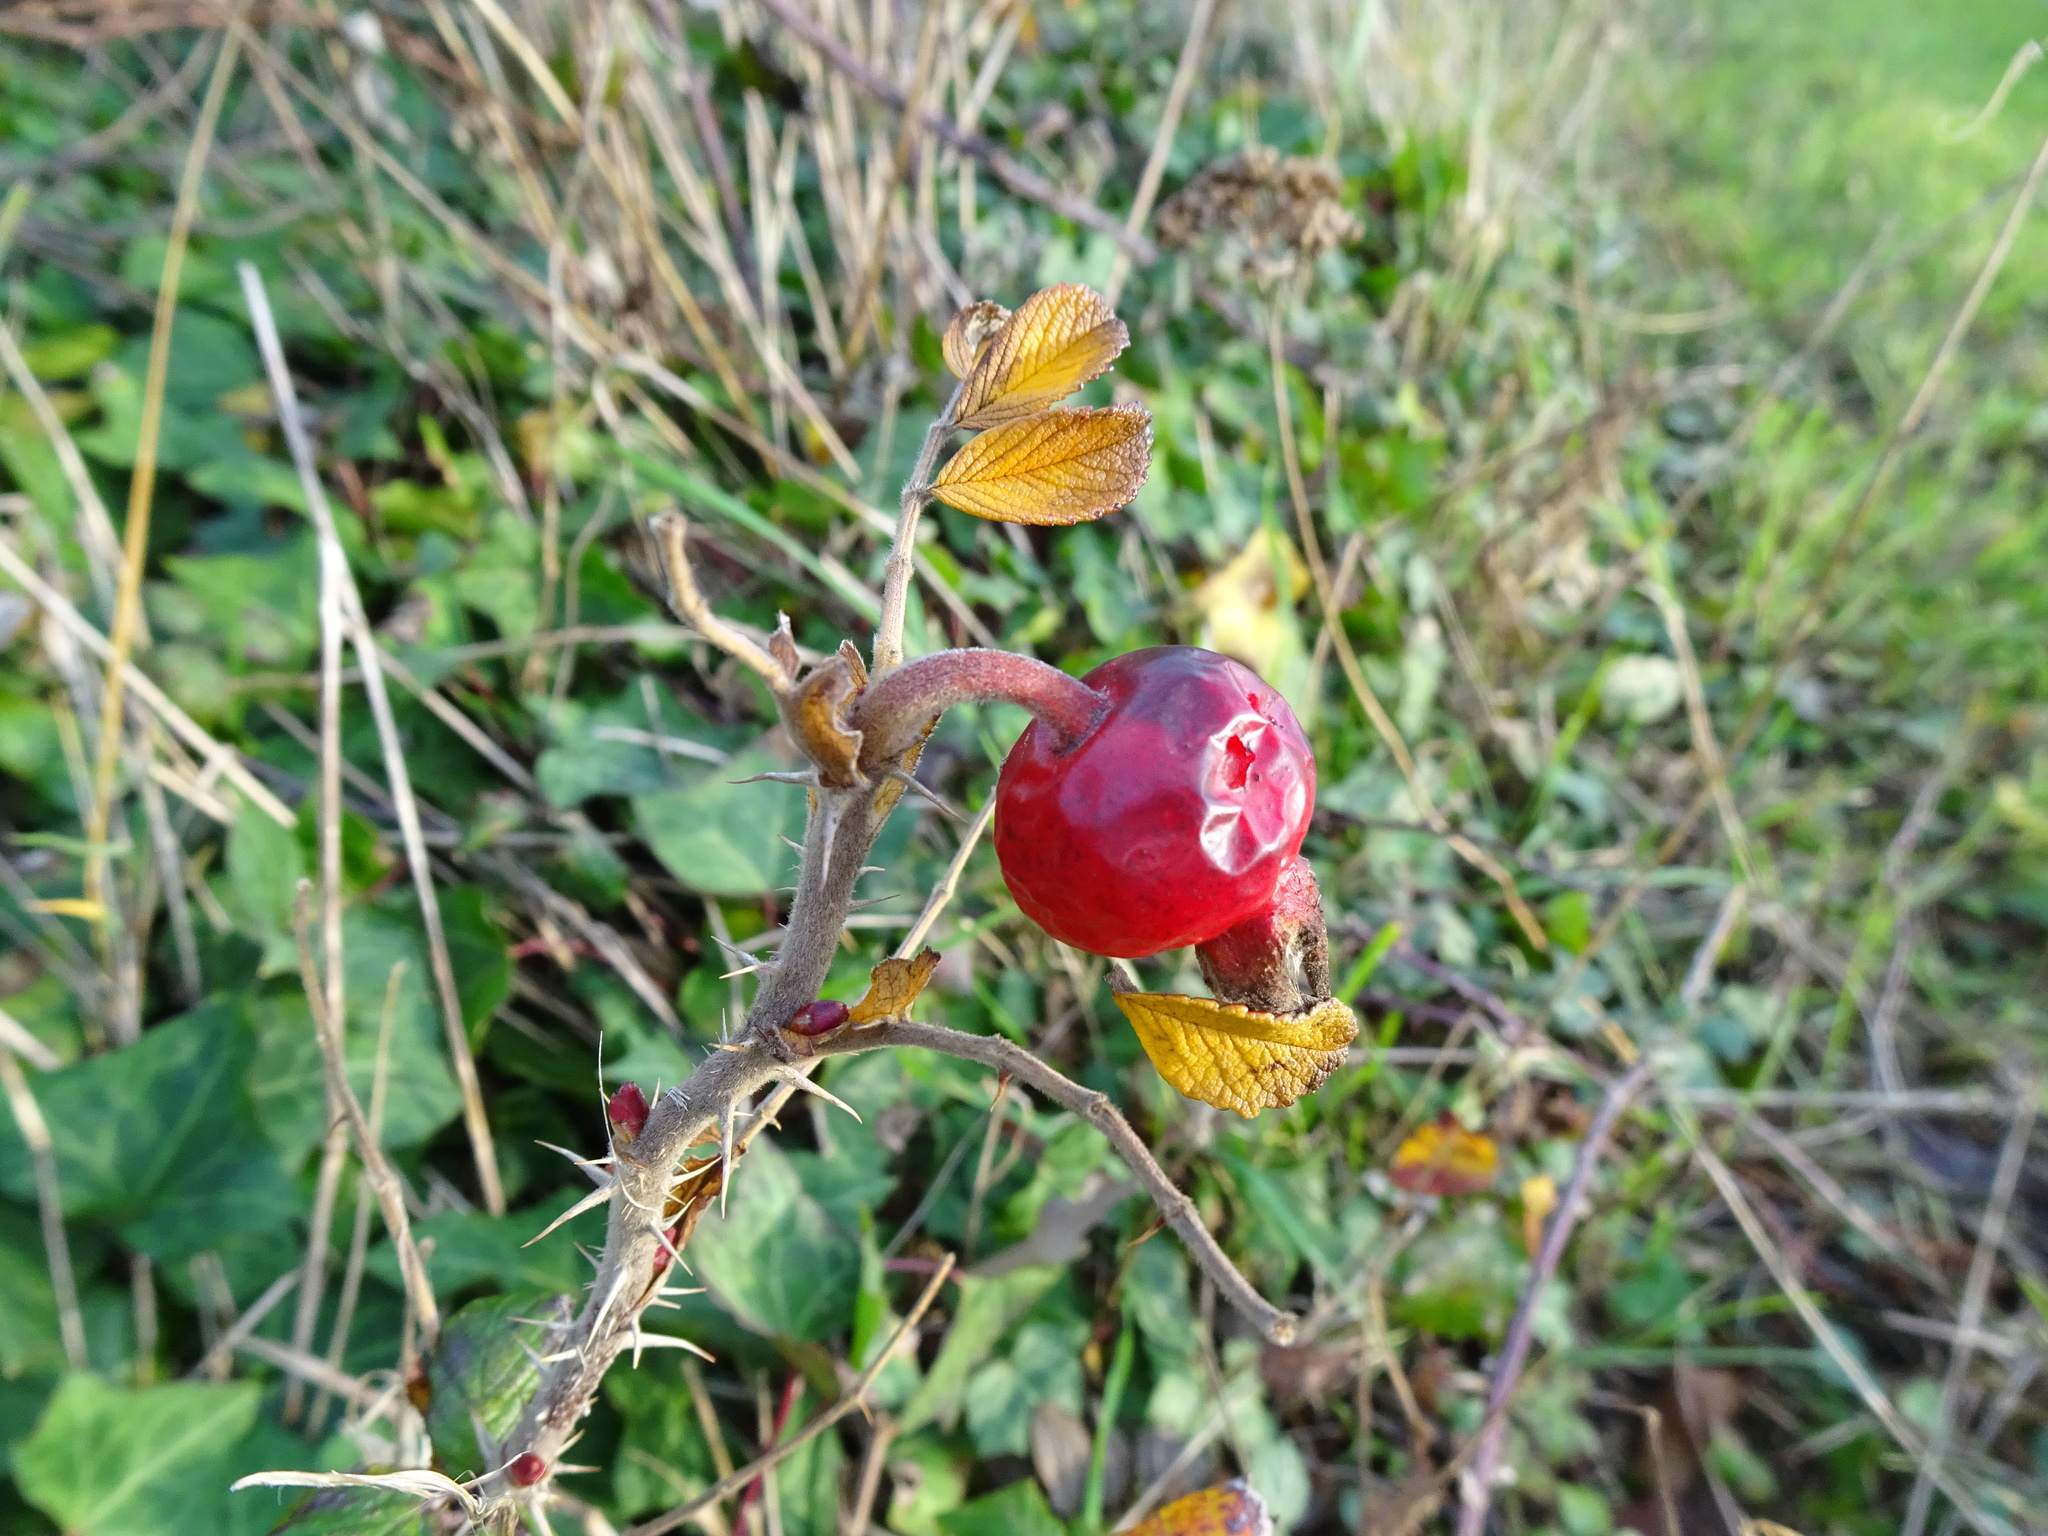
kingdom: Plantae
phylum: Tracheophyta
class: Magnoliopsida
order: Rosales
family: Rosaceae
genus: Rosa
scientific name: Rosa rugosa
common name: Japanese rose
